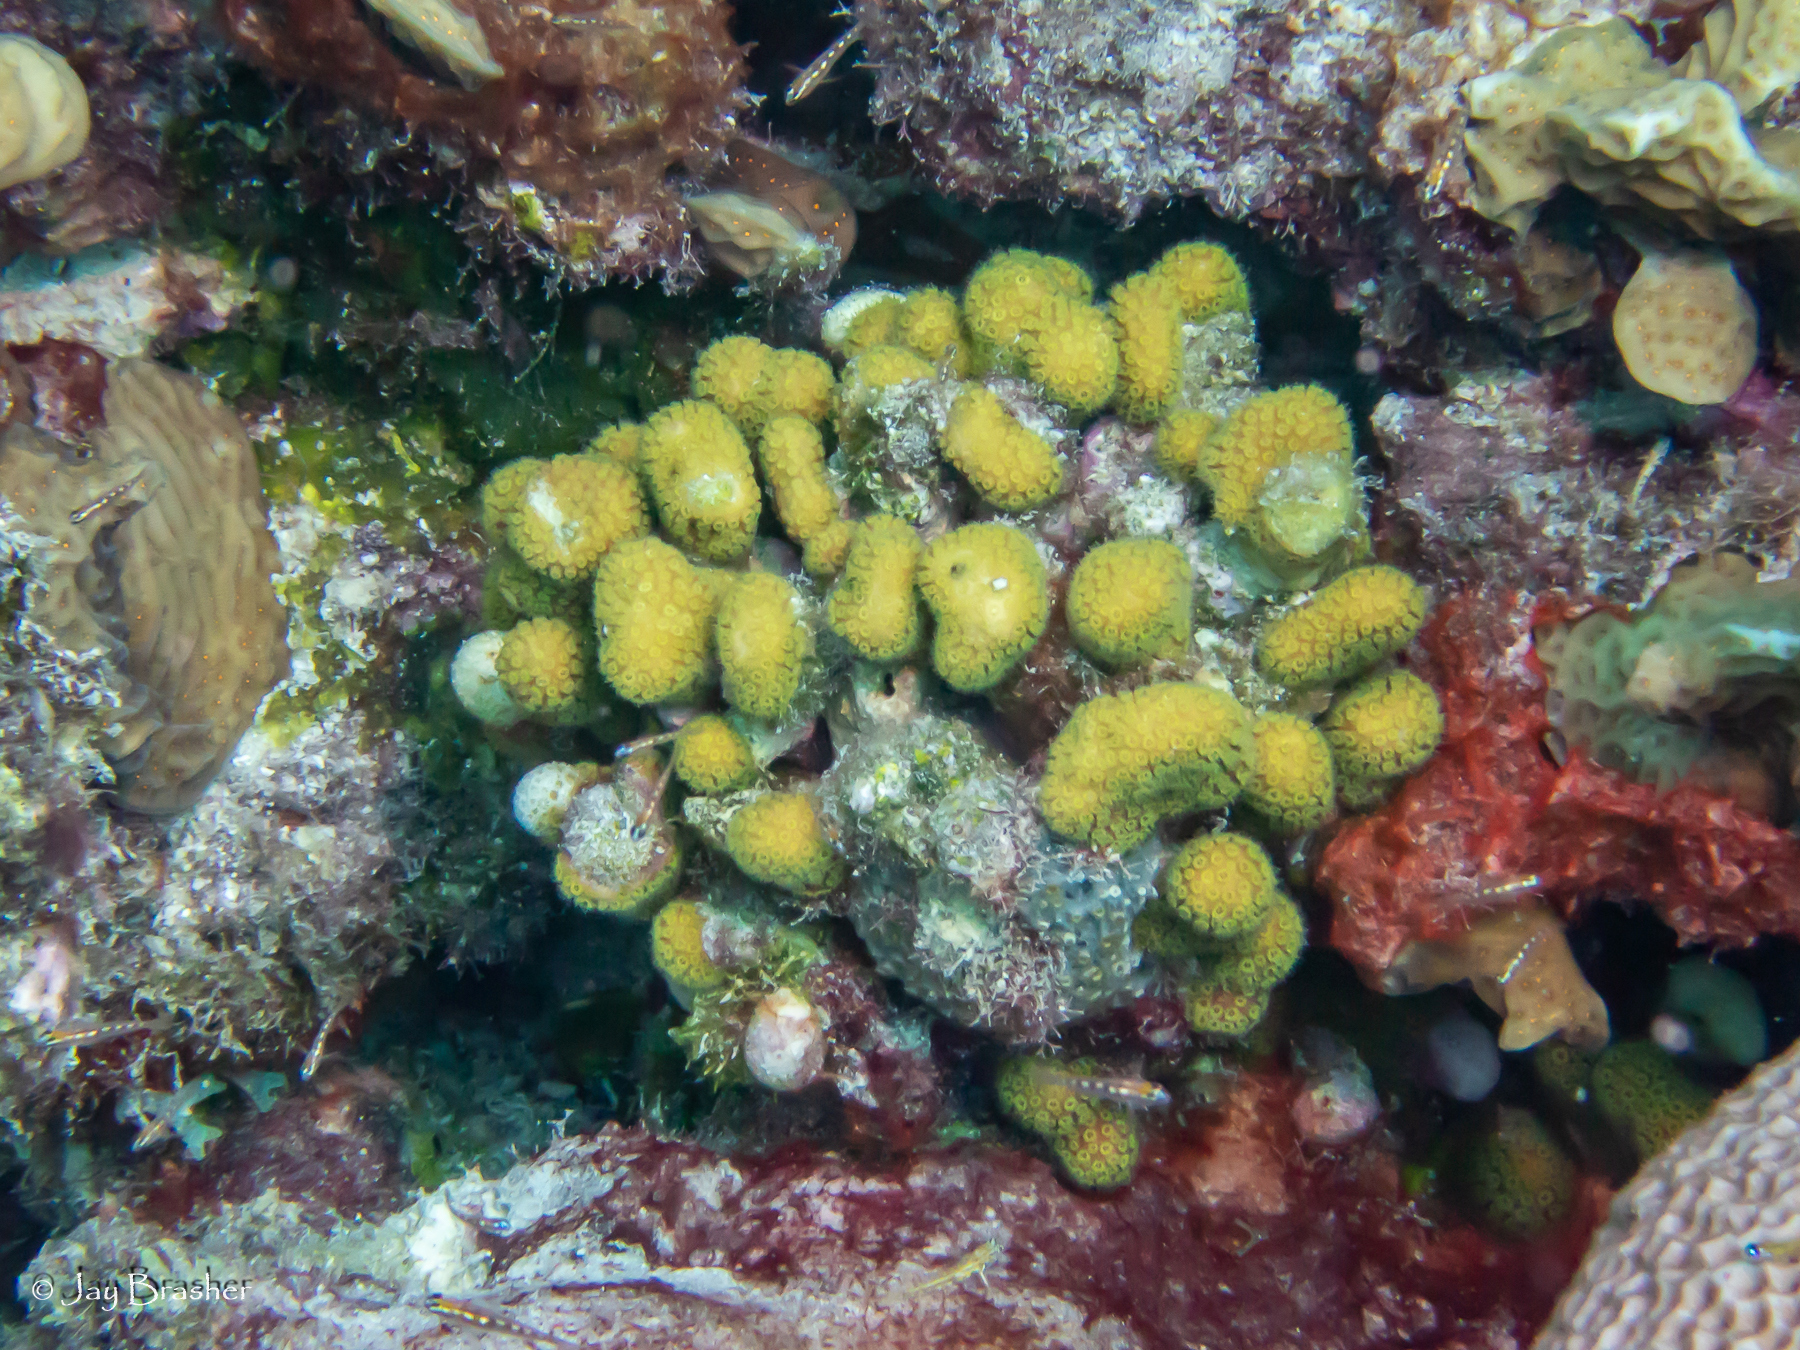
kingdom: Animalia
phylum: Cnidaria
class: Anthozoa
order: Scleractinia
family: Pocilloporidae
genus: Madracis
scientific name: Madracis decactis
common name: Ten-ray star coral
